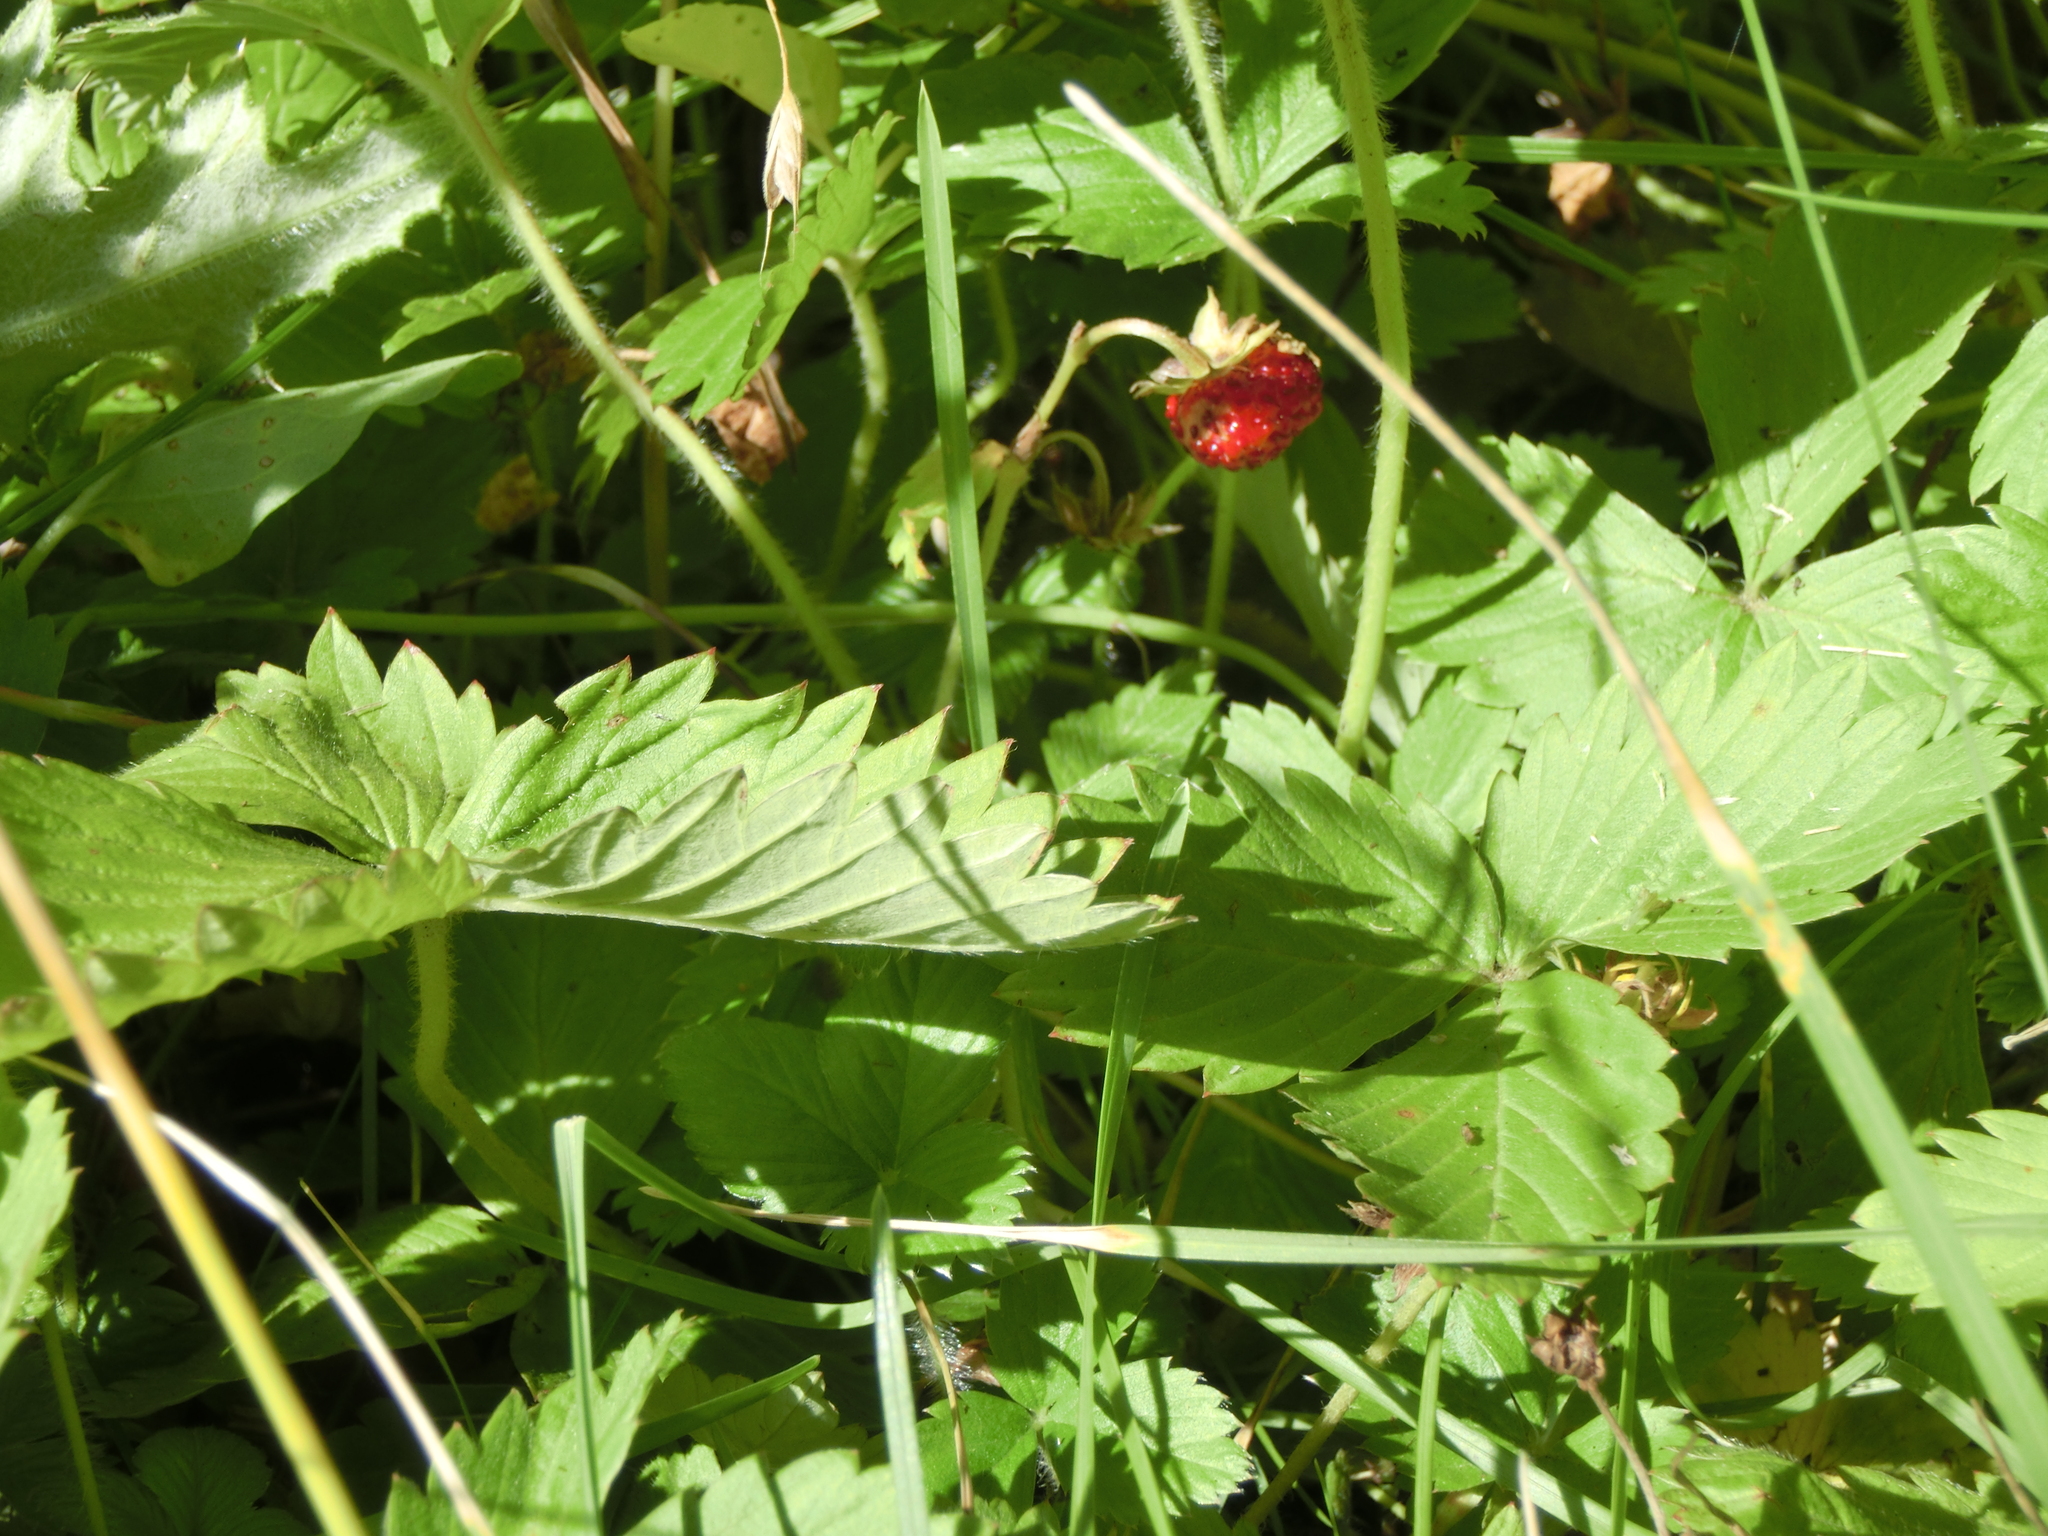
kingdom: Plantae
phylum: Tracheophyta
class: Magnoliopsida
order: Rosales
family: Rosaceae
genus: Fragaria
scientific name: Fragaria vesca
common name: Wild strawberry
